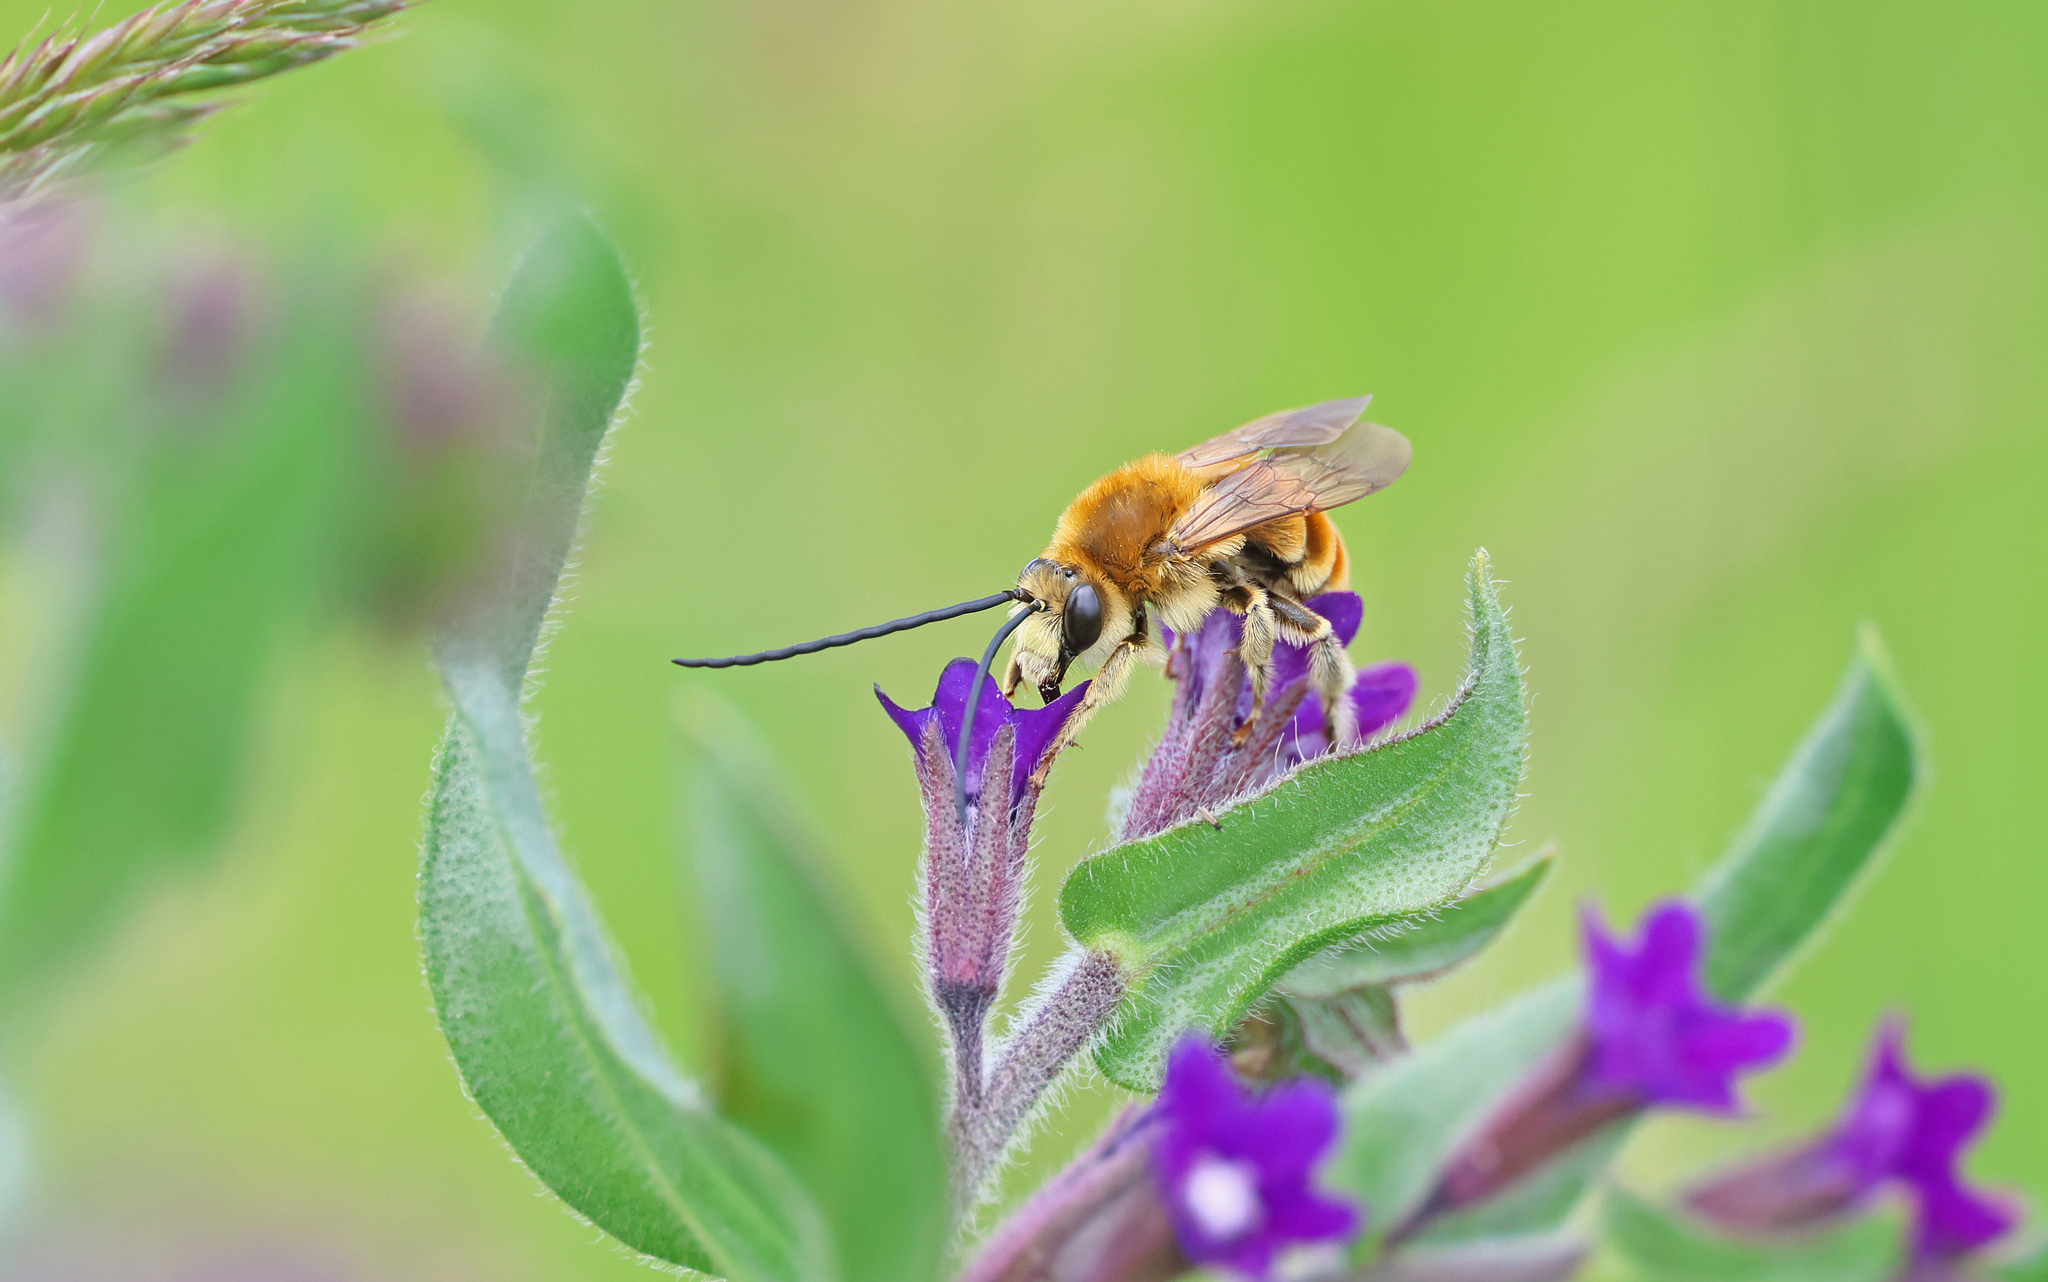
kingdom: Animalia
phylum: Arthropoda
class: Insecta
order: Hymenoptera
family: Apidae
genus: Eucera
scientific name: Eucera chrysopyga
